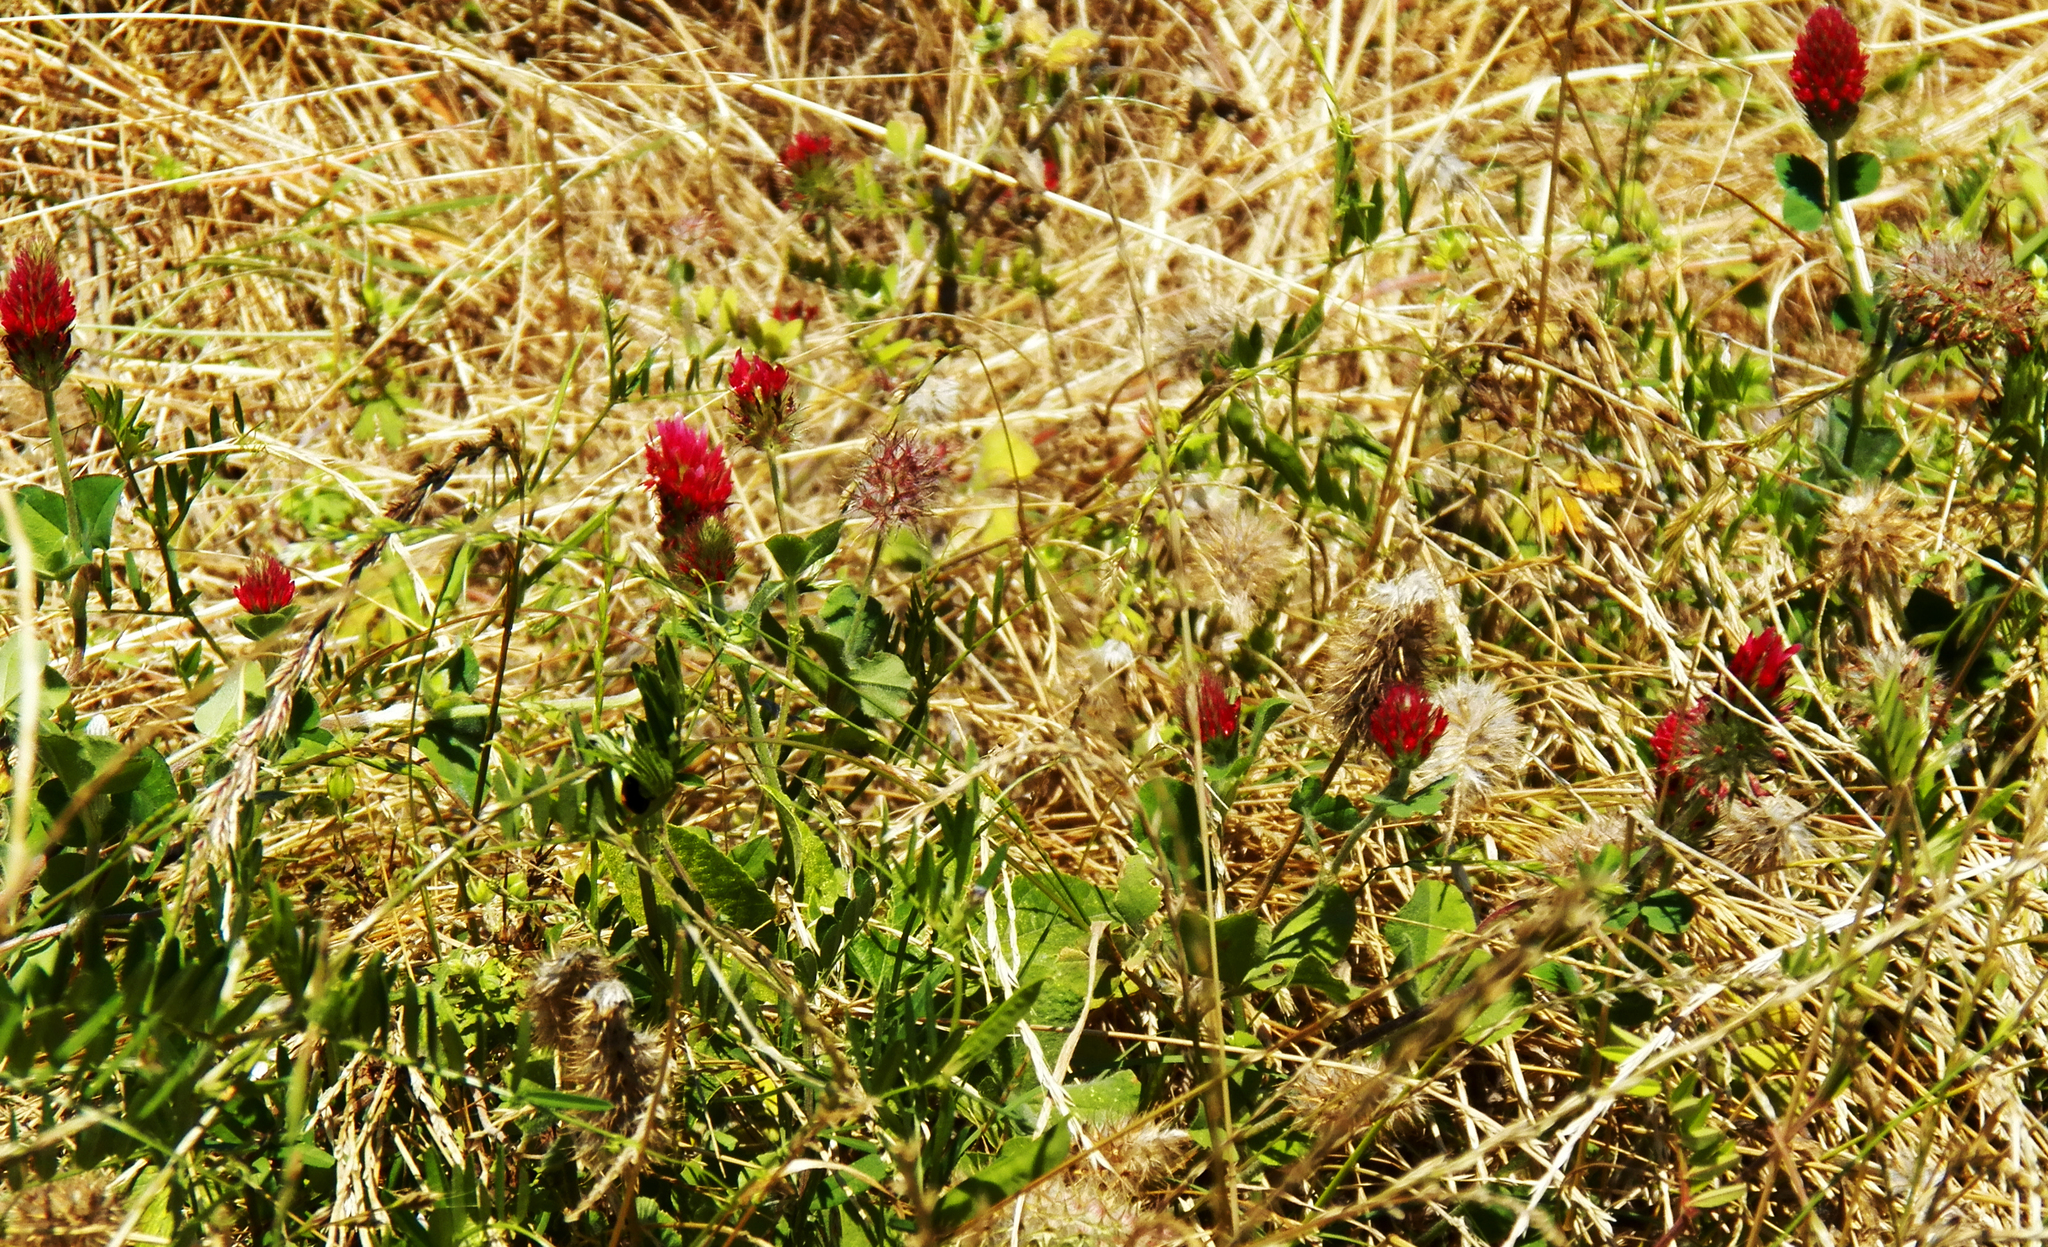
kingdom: Plantae
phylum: Tracheophyta
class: Magnoliopsida
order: Fabales
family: Fabaceae
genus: Trifolium
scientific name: Trifolium incarnatum
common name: Crimson clover
